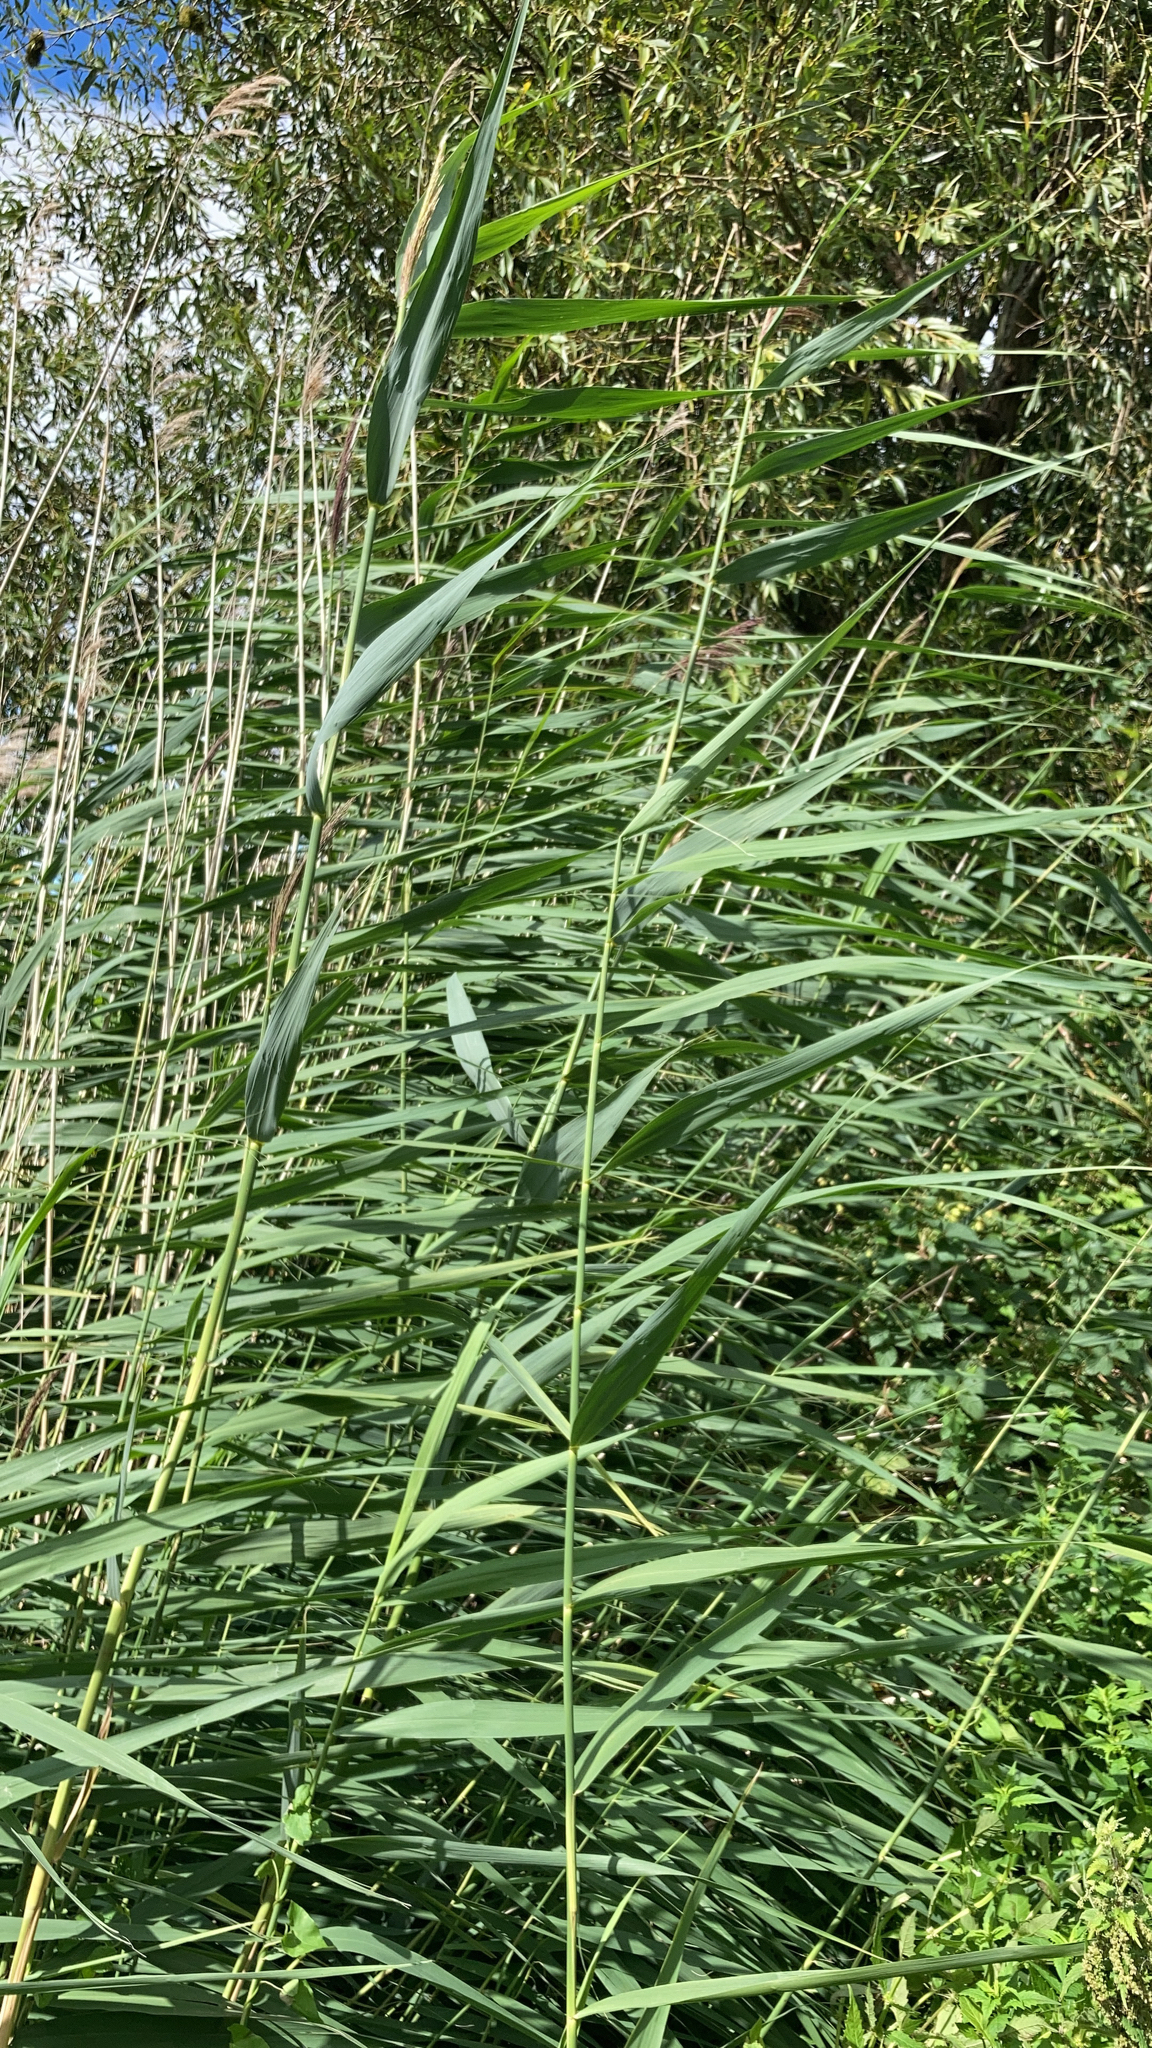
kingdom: Plantae
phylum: Tracheophyta
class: Liliopsida
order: Poales
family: Poaceae
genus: Phragmites
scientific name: Phragmites australis
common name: Common reed
